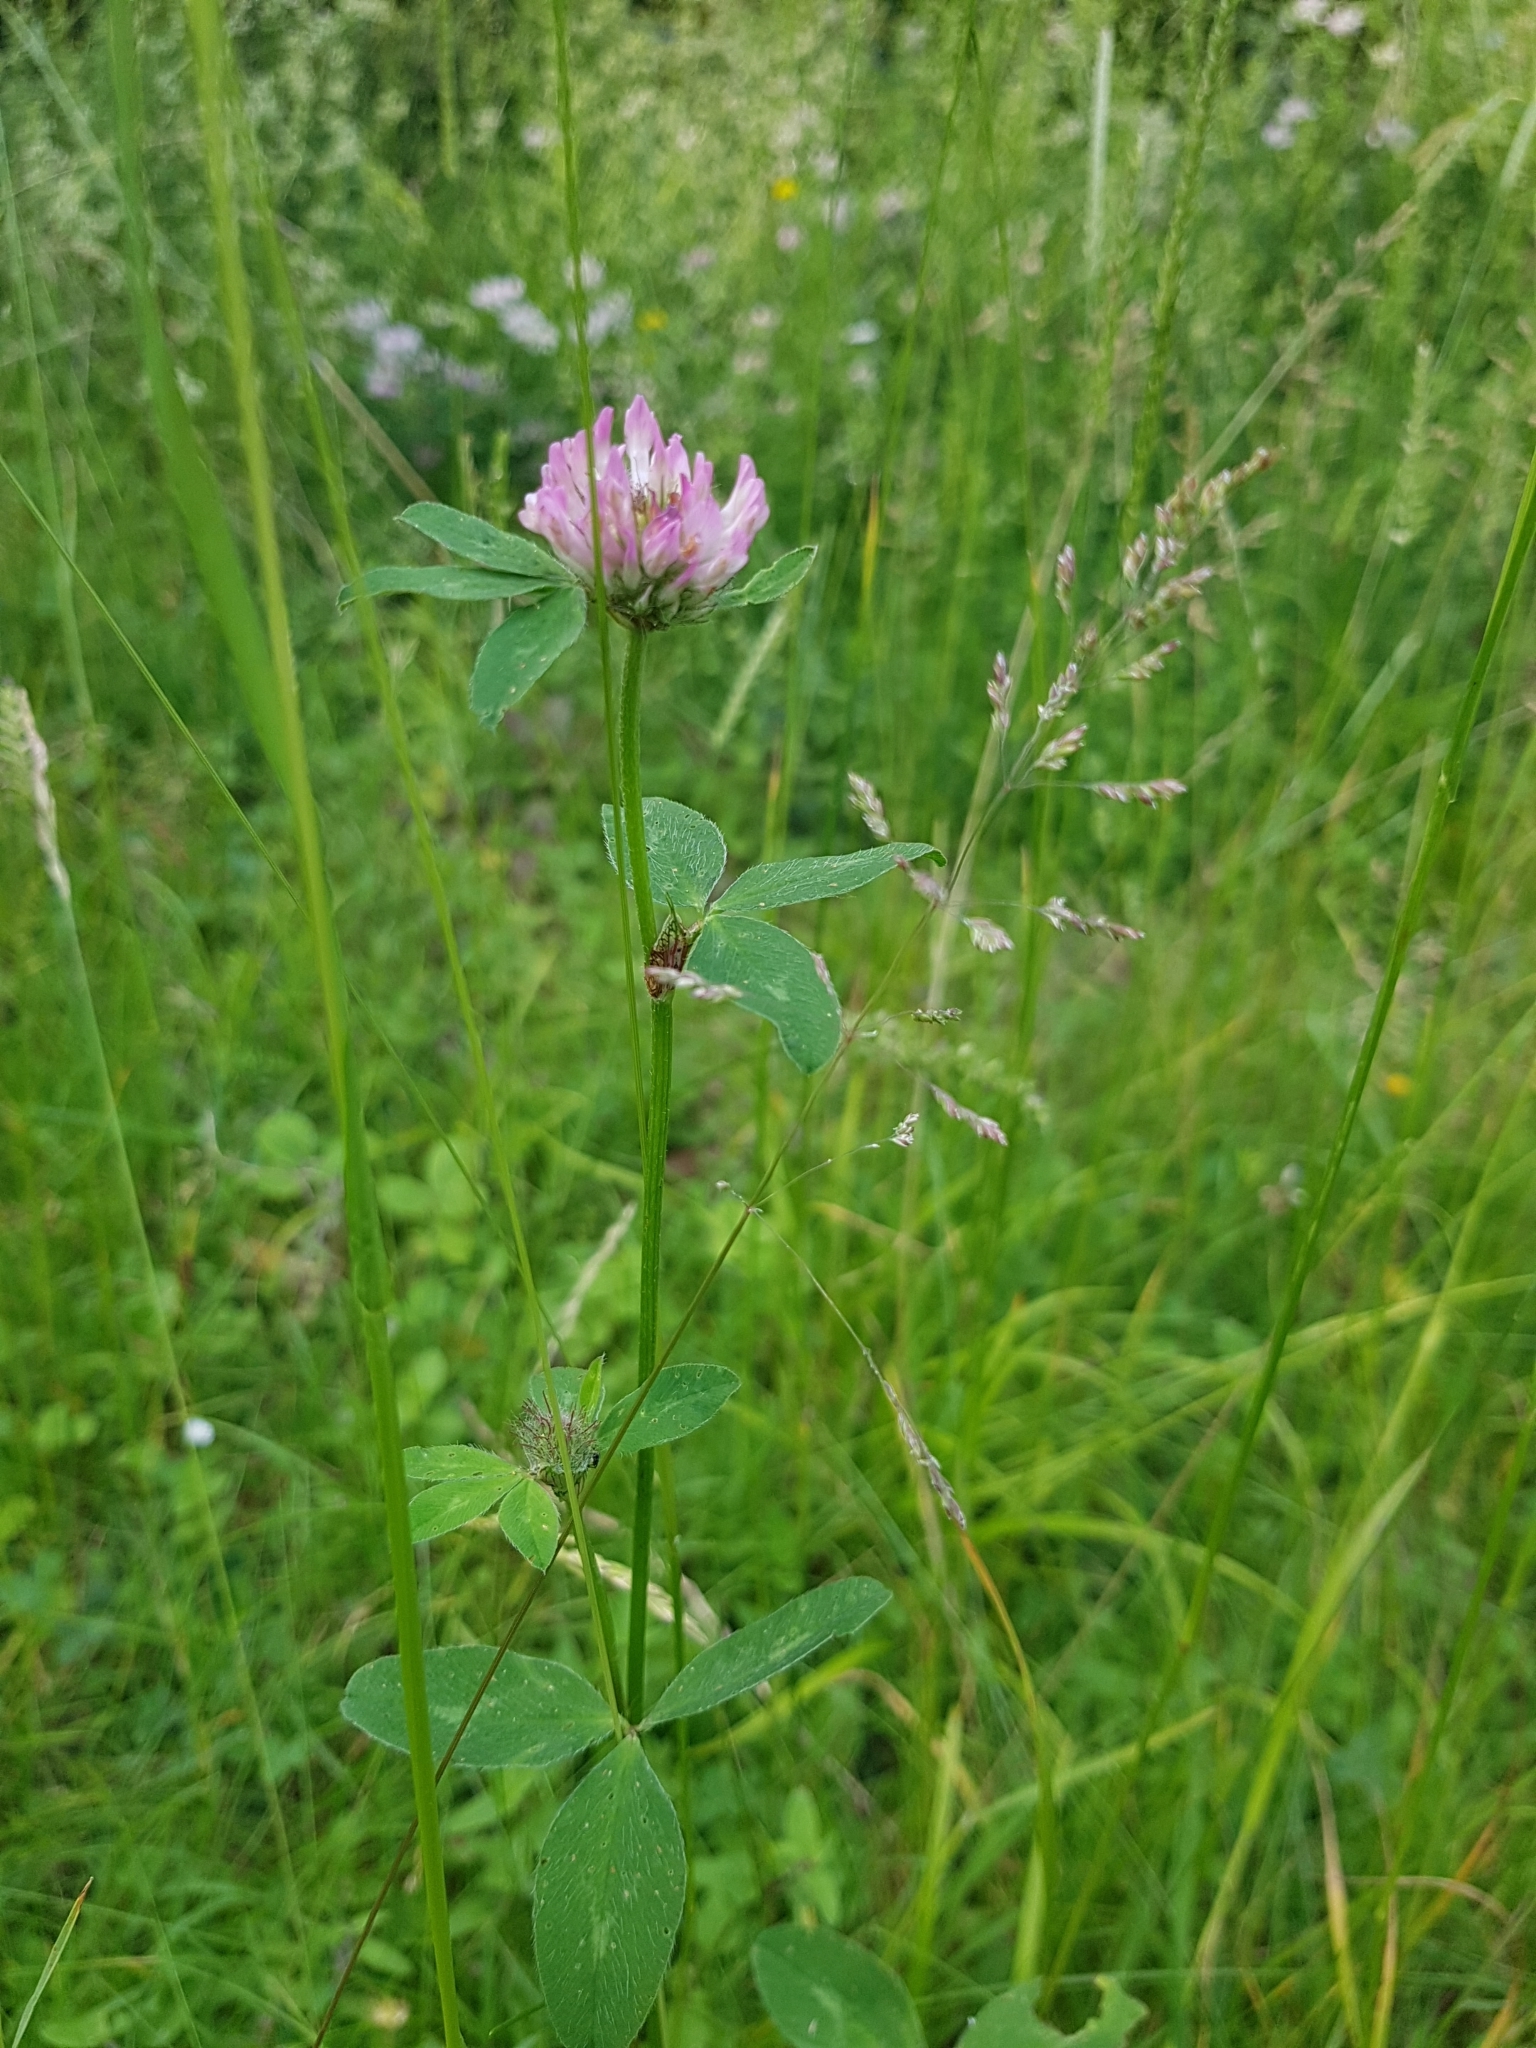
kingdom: Plantae
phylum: Tracheophyta
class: Magnoliopsida
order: Fabales
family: Fabaceae
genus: Trifolium
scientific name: Trifolium pratense
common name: Red clover
